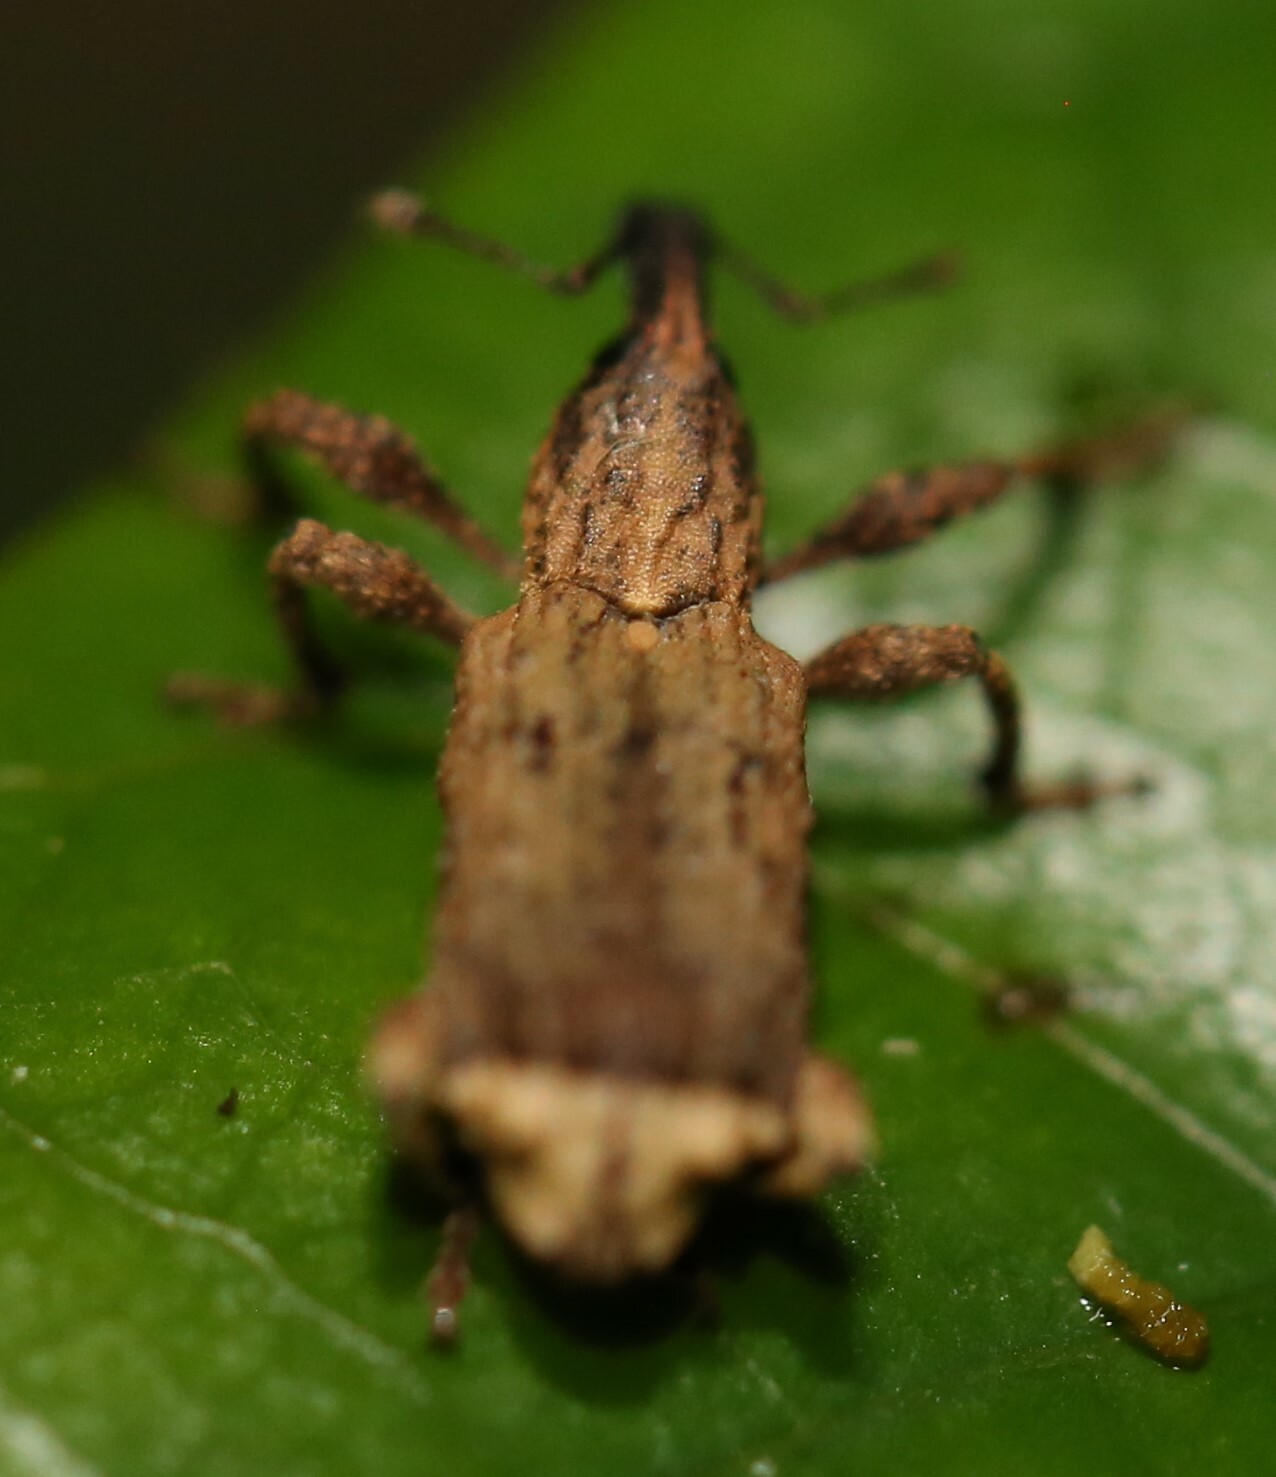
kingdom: Animalia
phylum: Arthropoda
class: Insecta
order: Coleoptera
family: Curculionidae
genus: Methypora
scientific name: Methypora tibialis
